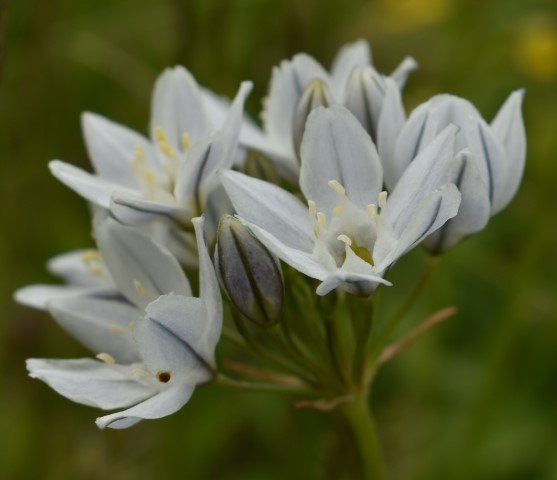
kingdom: Plantae
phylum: Tracheophyta
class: Liliopsida
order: Asparagales
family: Asparagaceae
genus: Triteleia
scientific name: Triteleia hyacinthina
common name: White brodiaea
